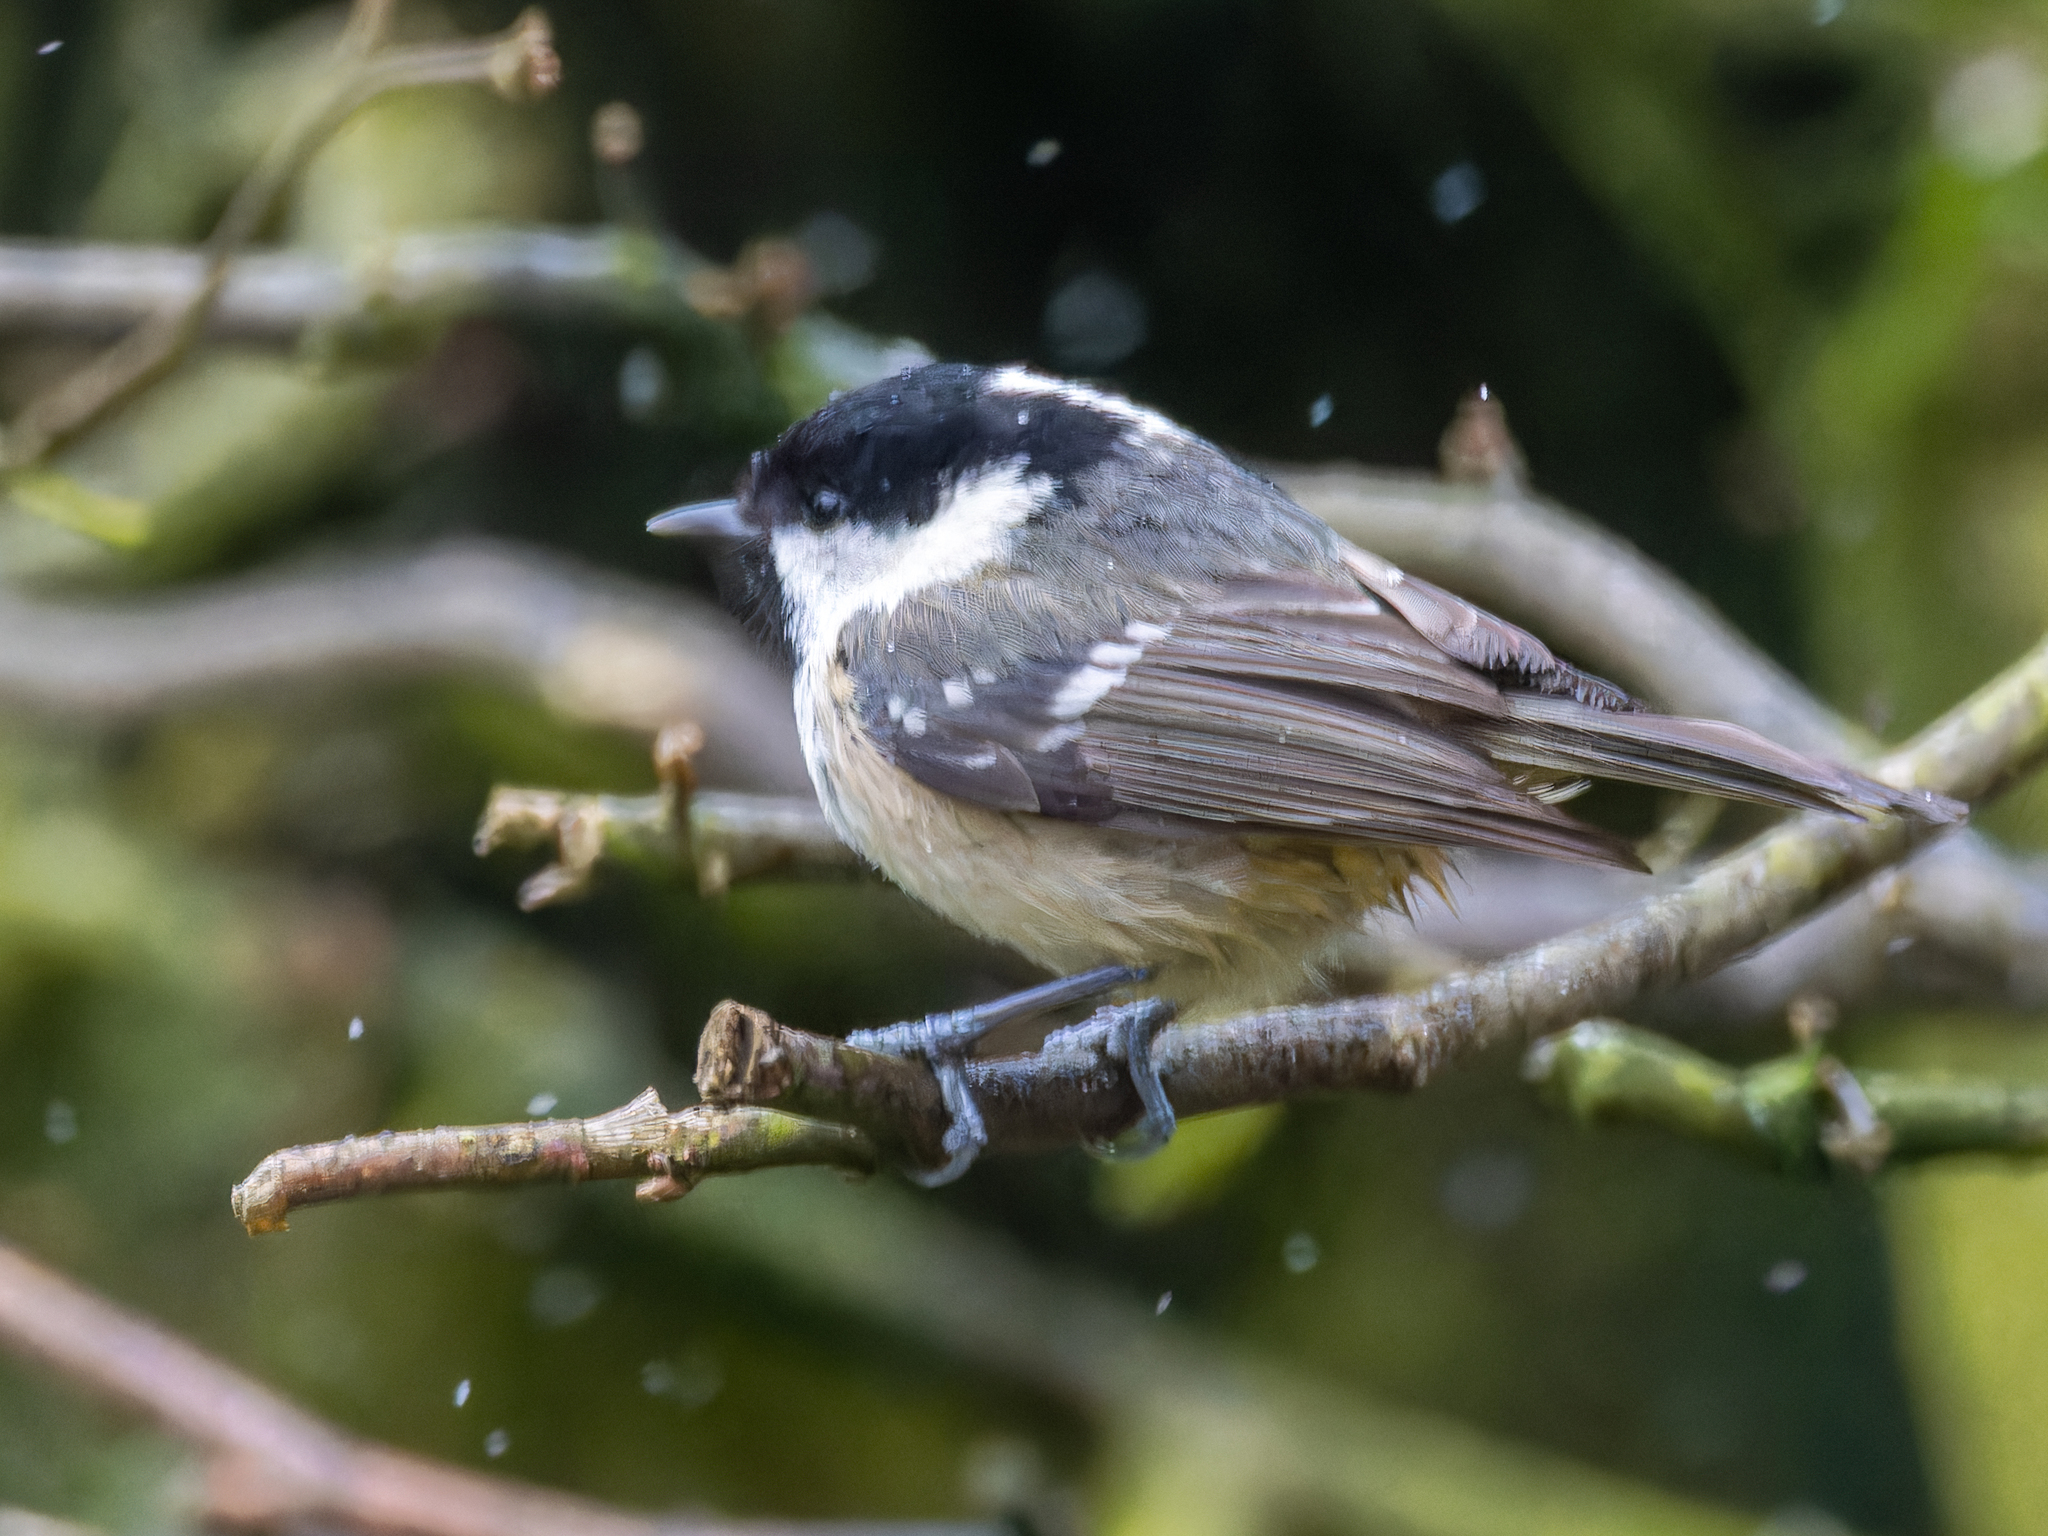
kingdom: Animalia
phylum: Chordata
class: Aves
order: Passeriformes
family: Paridae
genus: Periparus
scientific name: Periparus ater
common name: Coal tit
